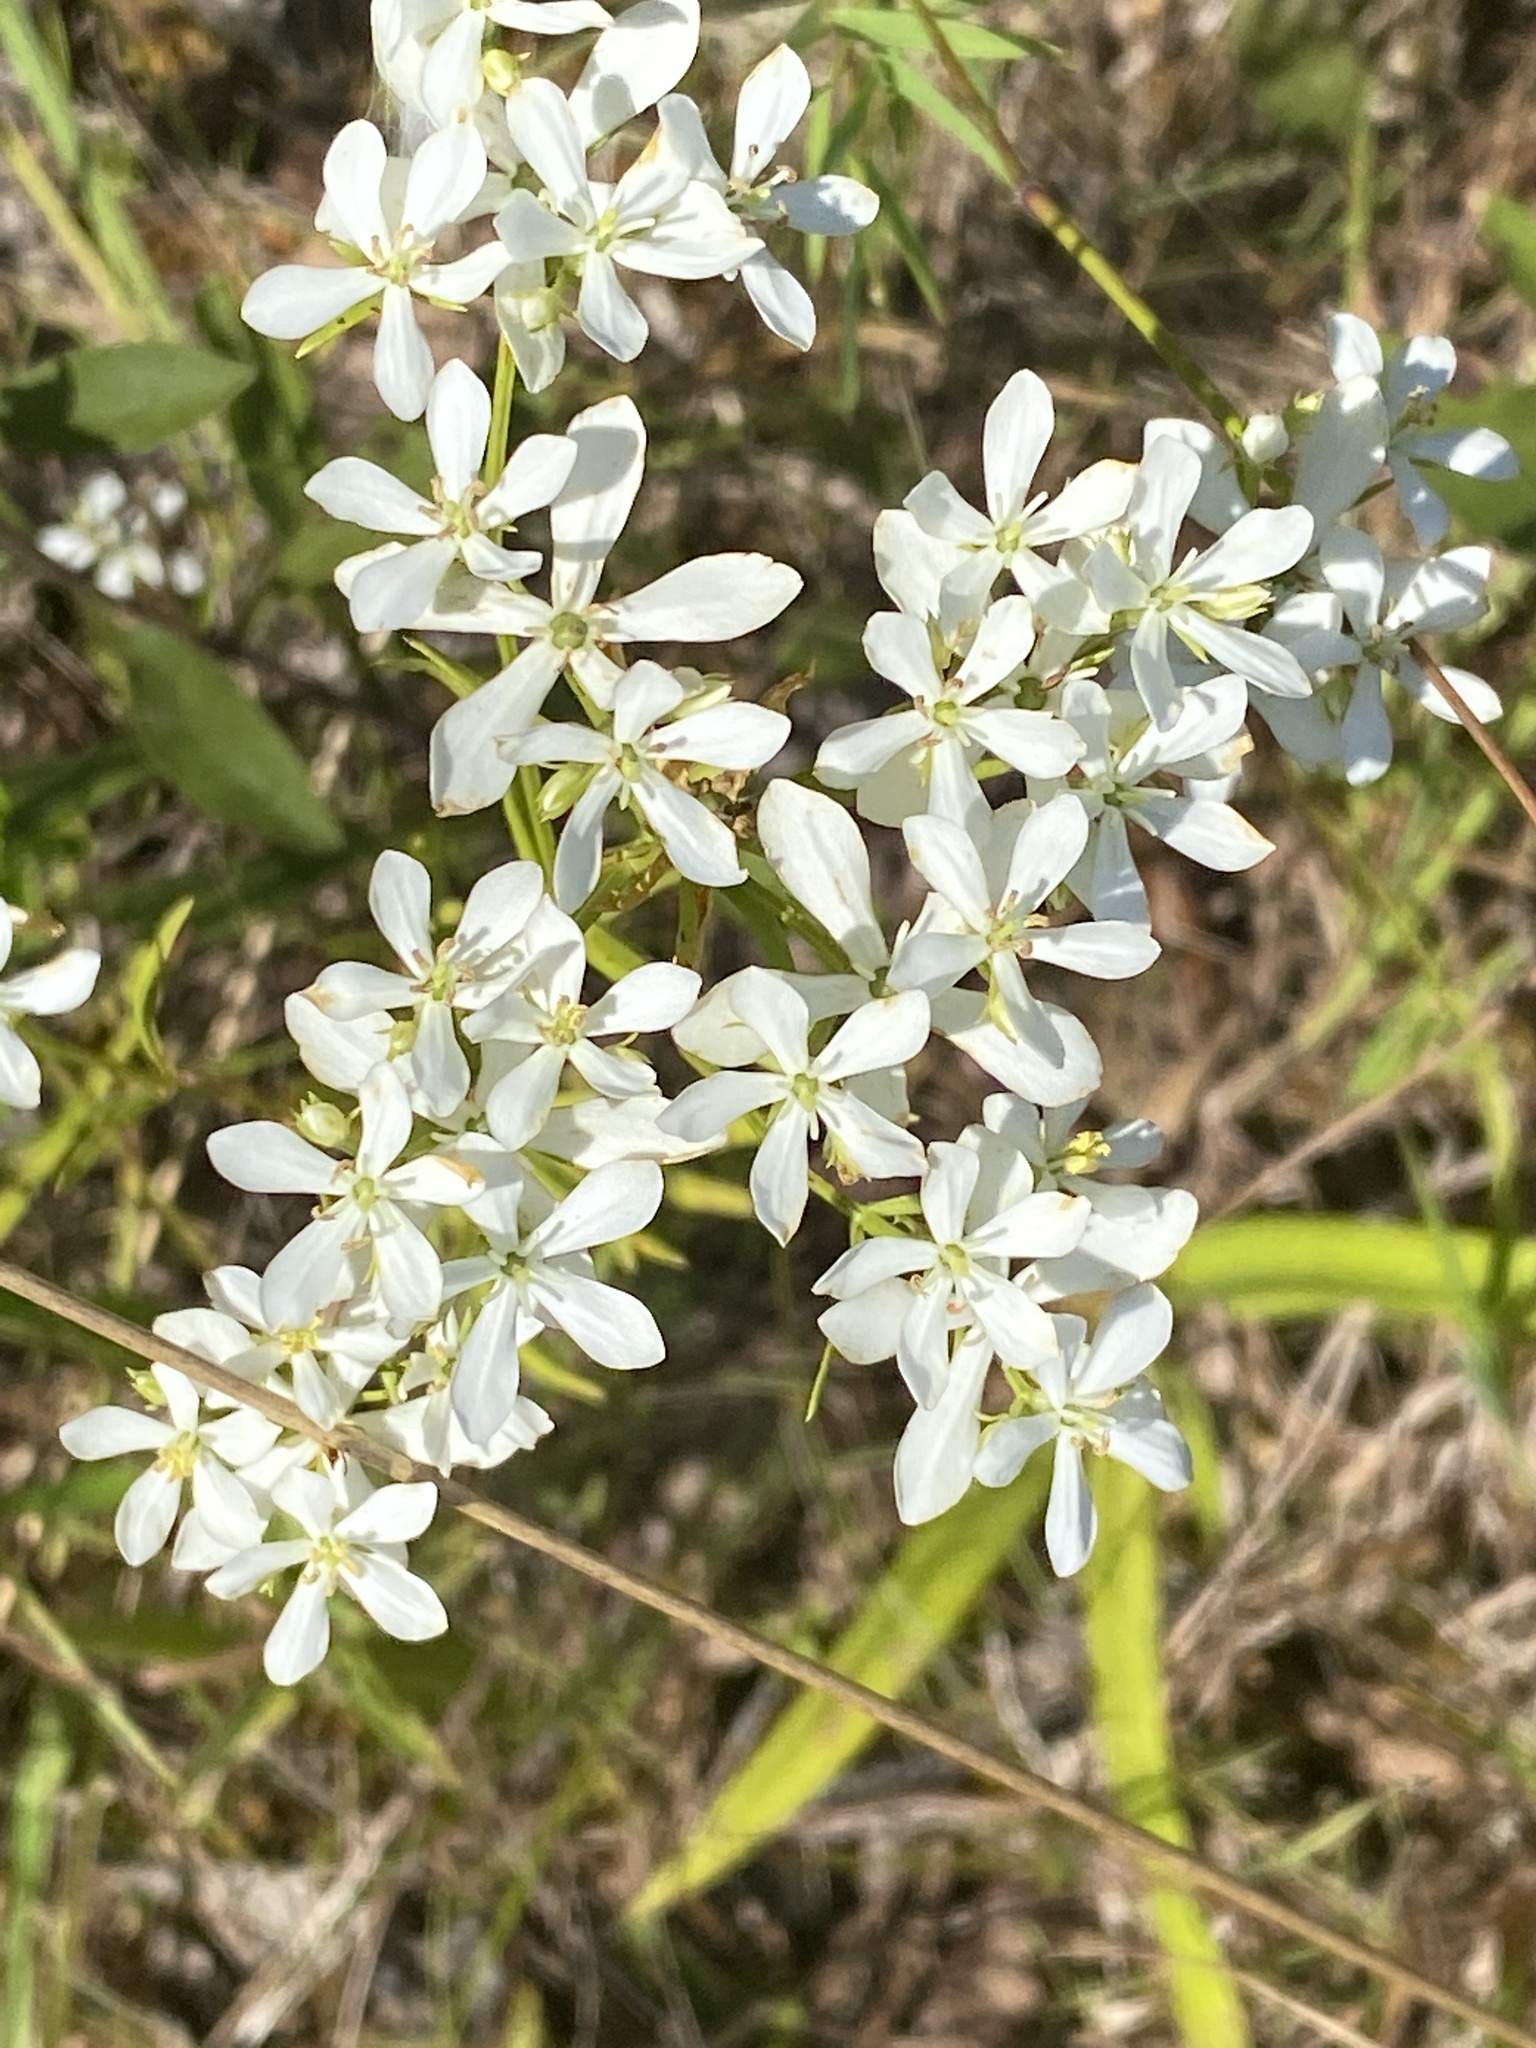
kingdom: Plantae
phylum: Tracheophyta
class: Magnoliopsida
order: Gentianales
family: Gentianaceae
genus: Sabatia
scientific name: Sabatia quadrangula
